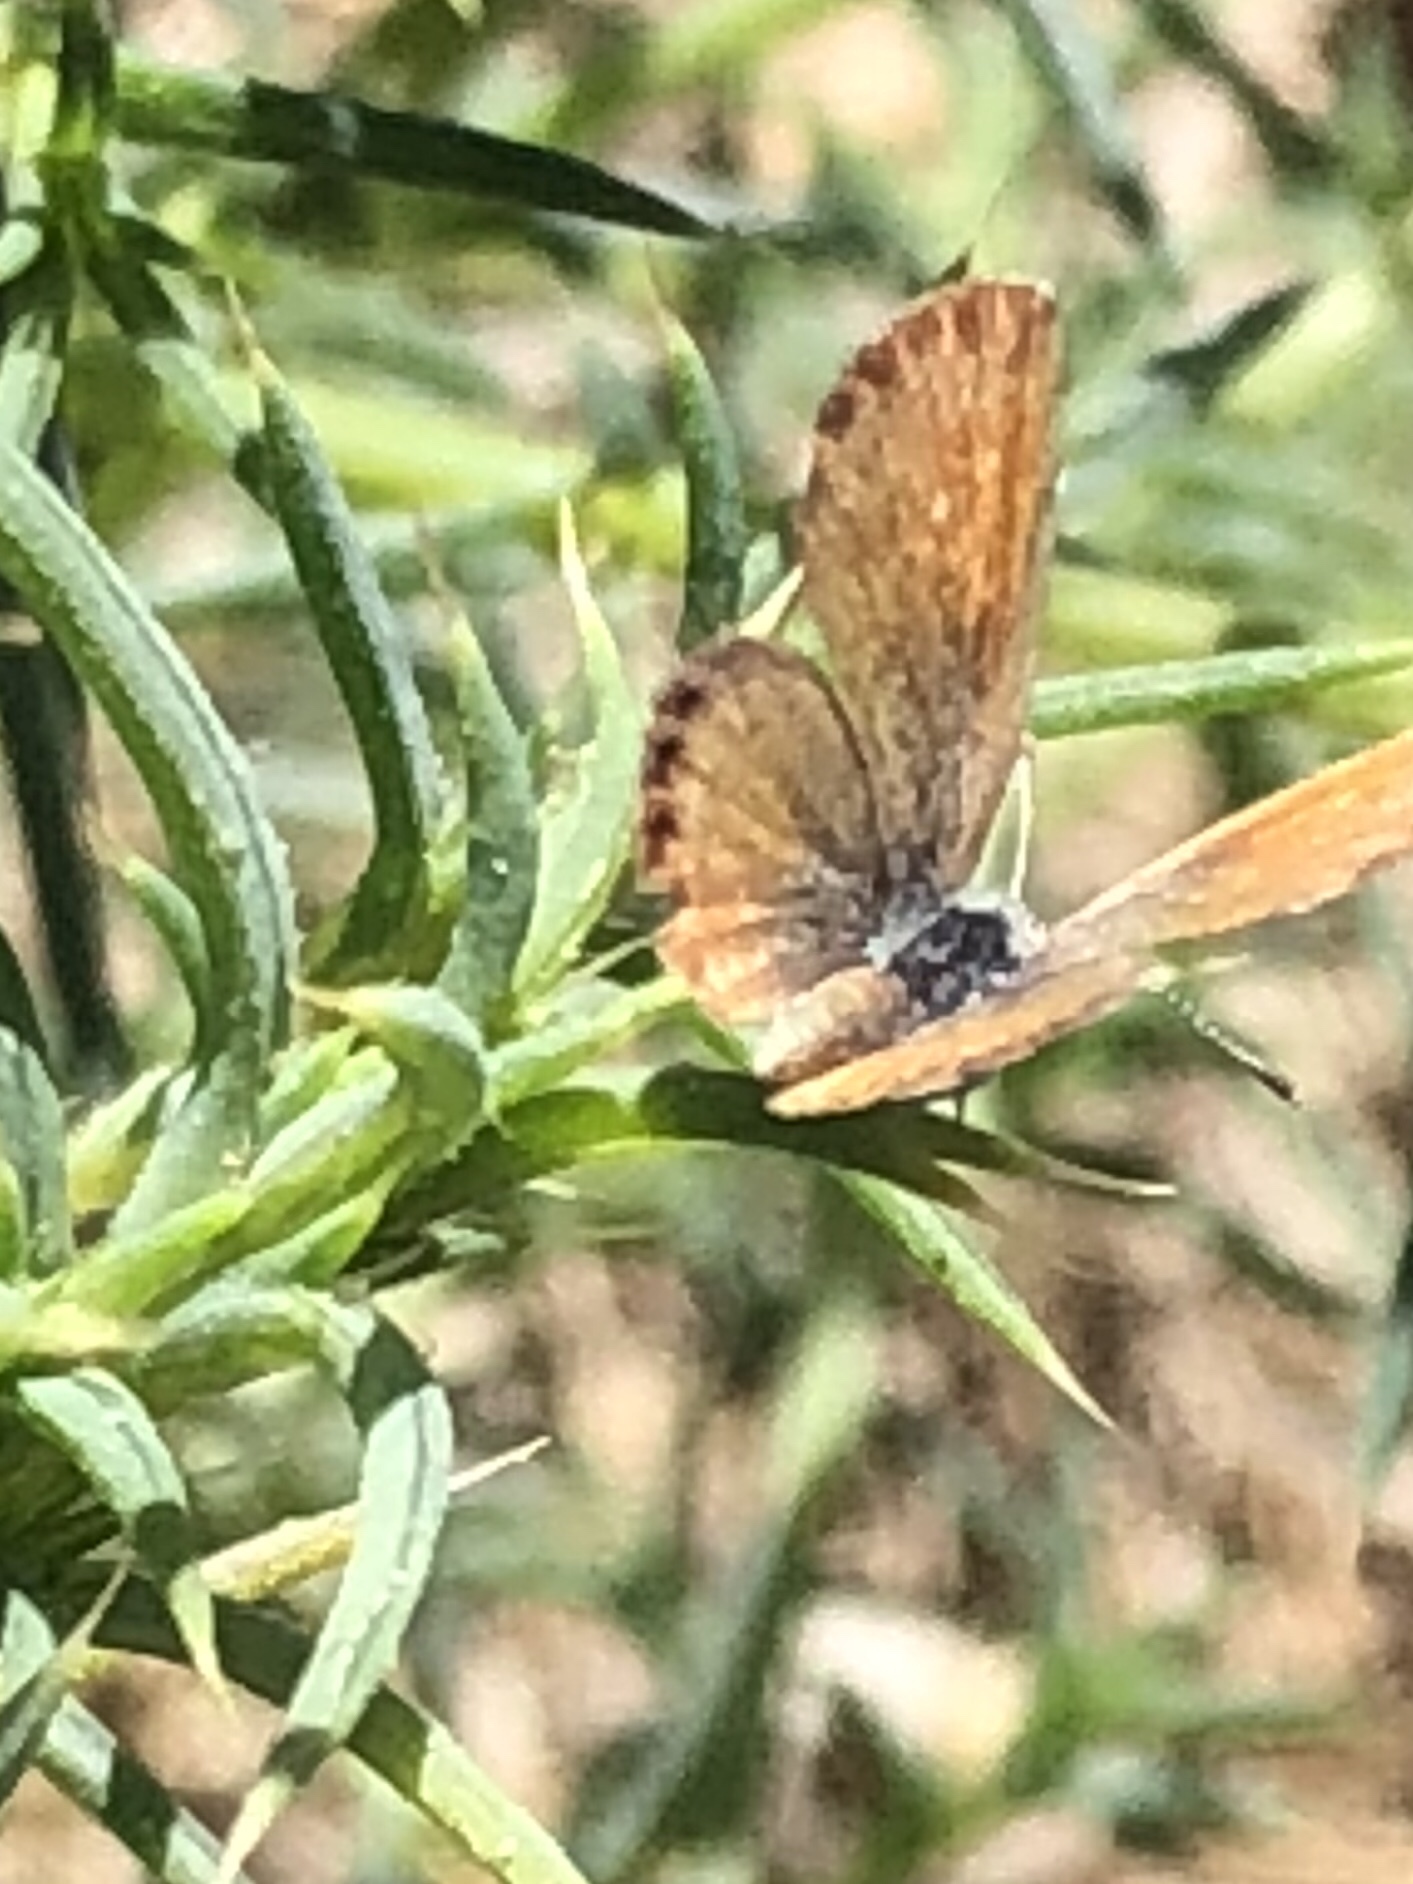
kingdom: Animalia
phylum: Arthropoda
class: Insecta
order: Lepidoptera
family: Lycaenidae
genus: Brephidium
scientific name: Brephidium exilis
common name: Pygmy blue
